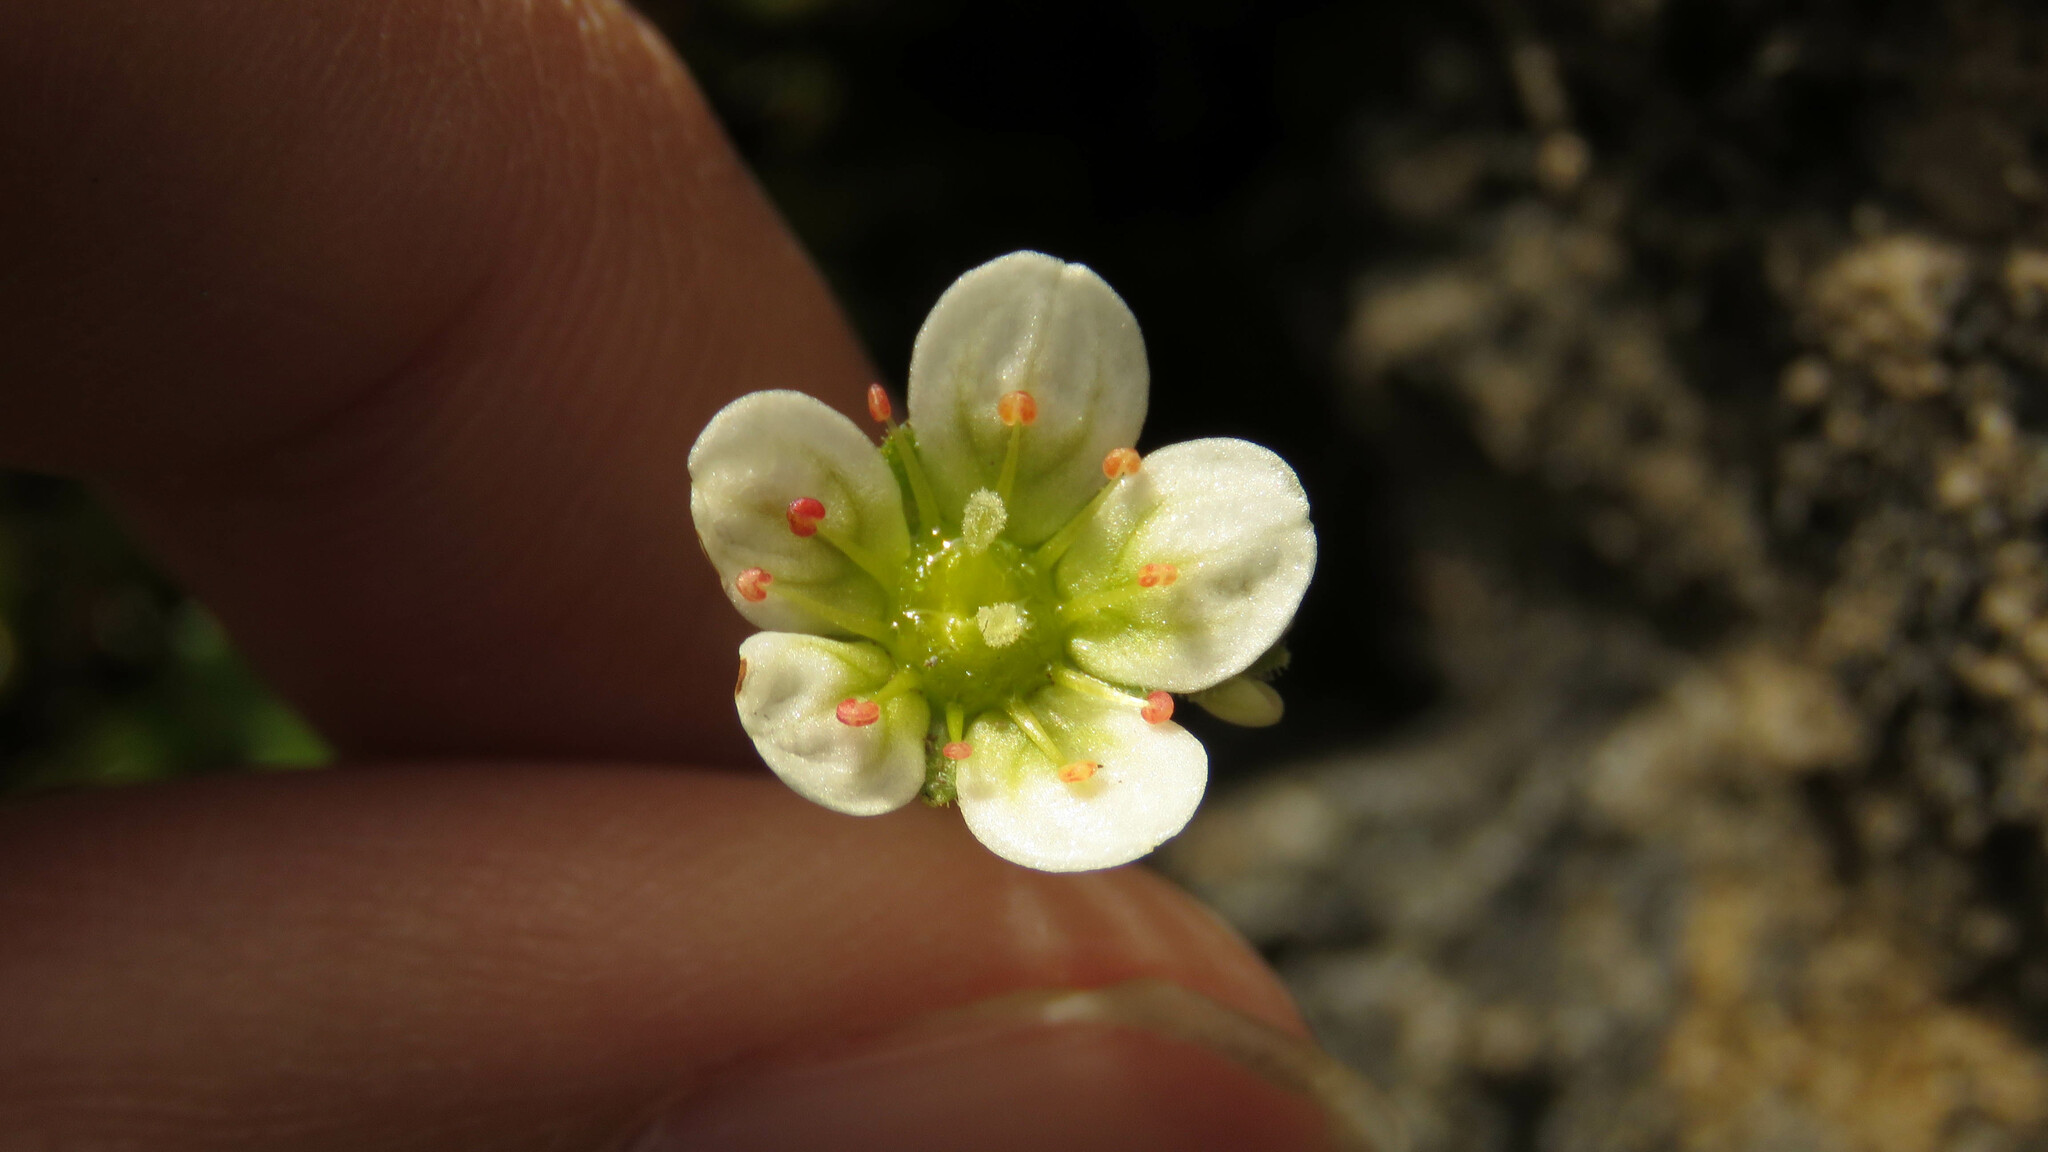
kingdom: Plantae
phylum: Tracheophyta
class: Magnoliopsida
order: Saxifragales
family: Saxifragaceae
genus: Saxifraga
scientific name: Saxifraga magellanica
